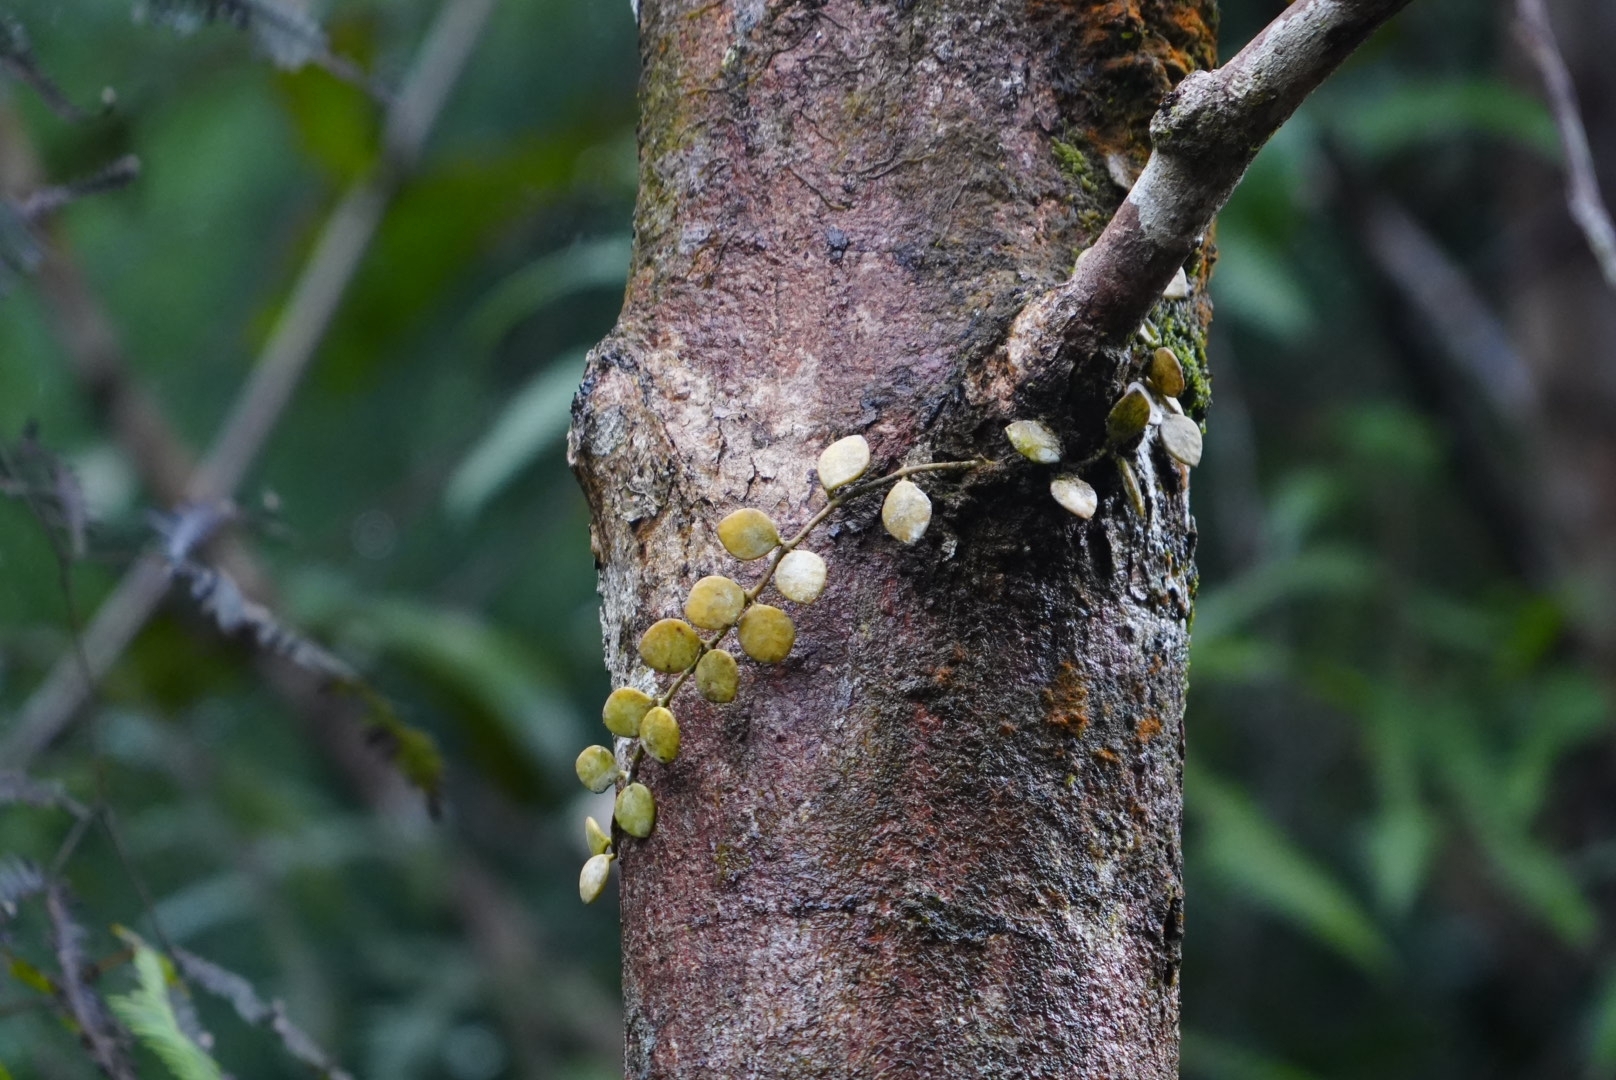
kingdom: Plantae
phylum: Tracheophyta
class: Magnoliopsida
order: Gentianales
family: Apocynaceae
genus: Dischidia
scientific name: Dischidia hirsuta
